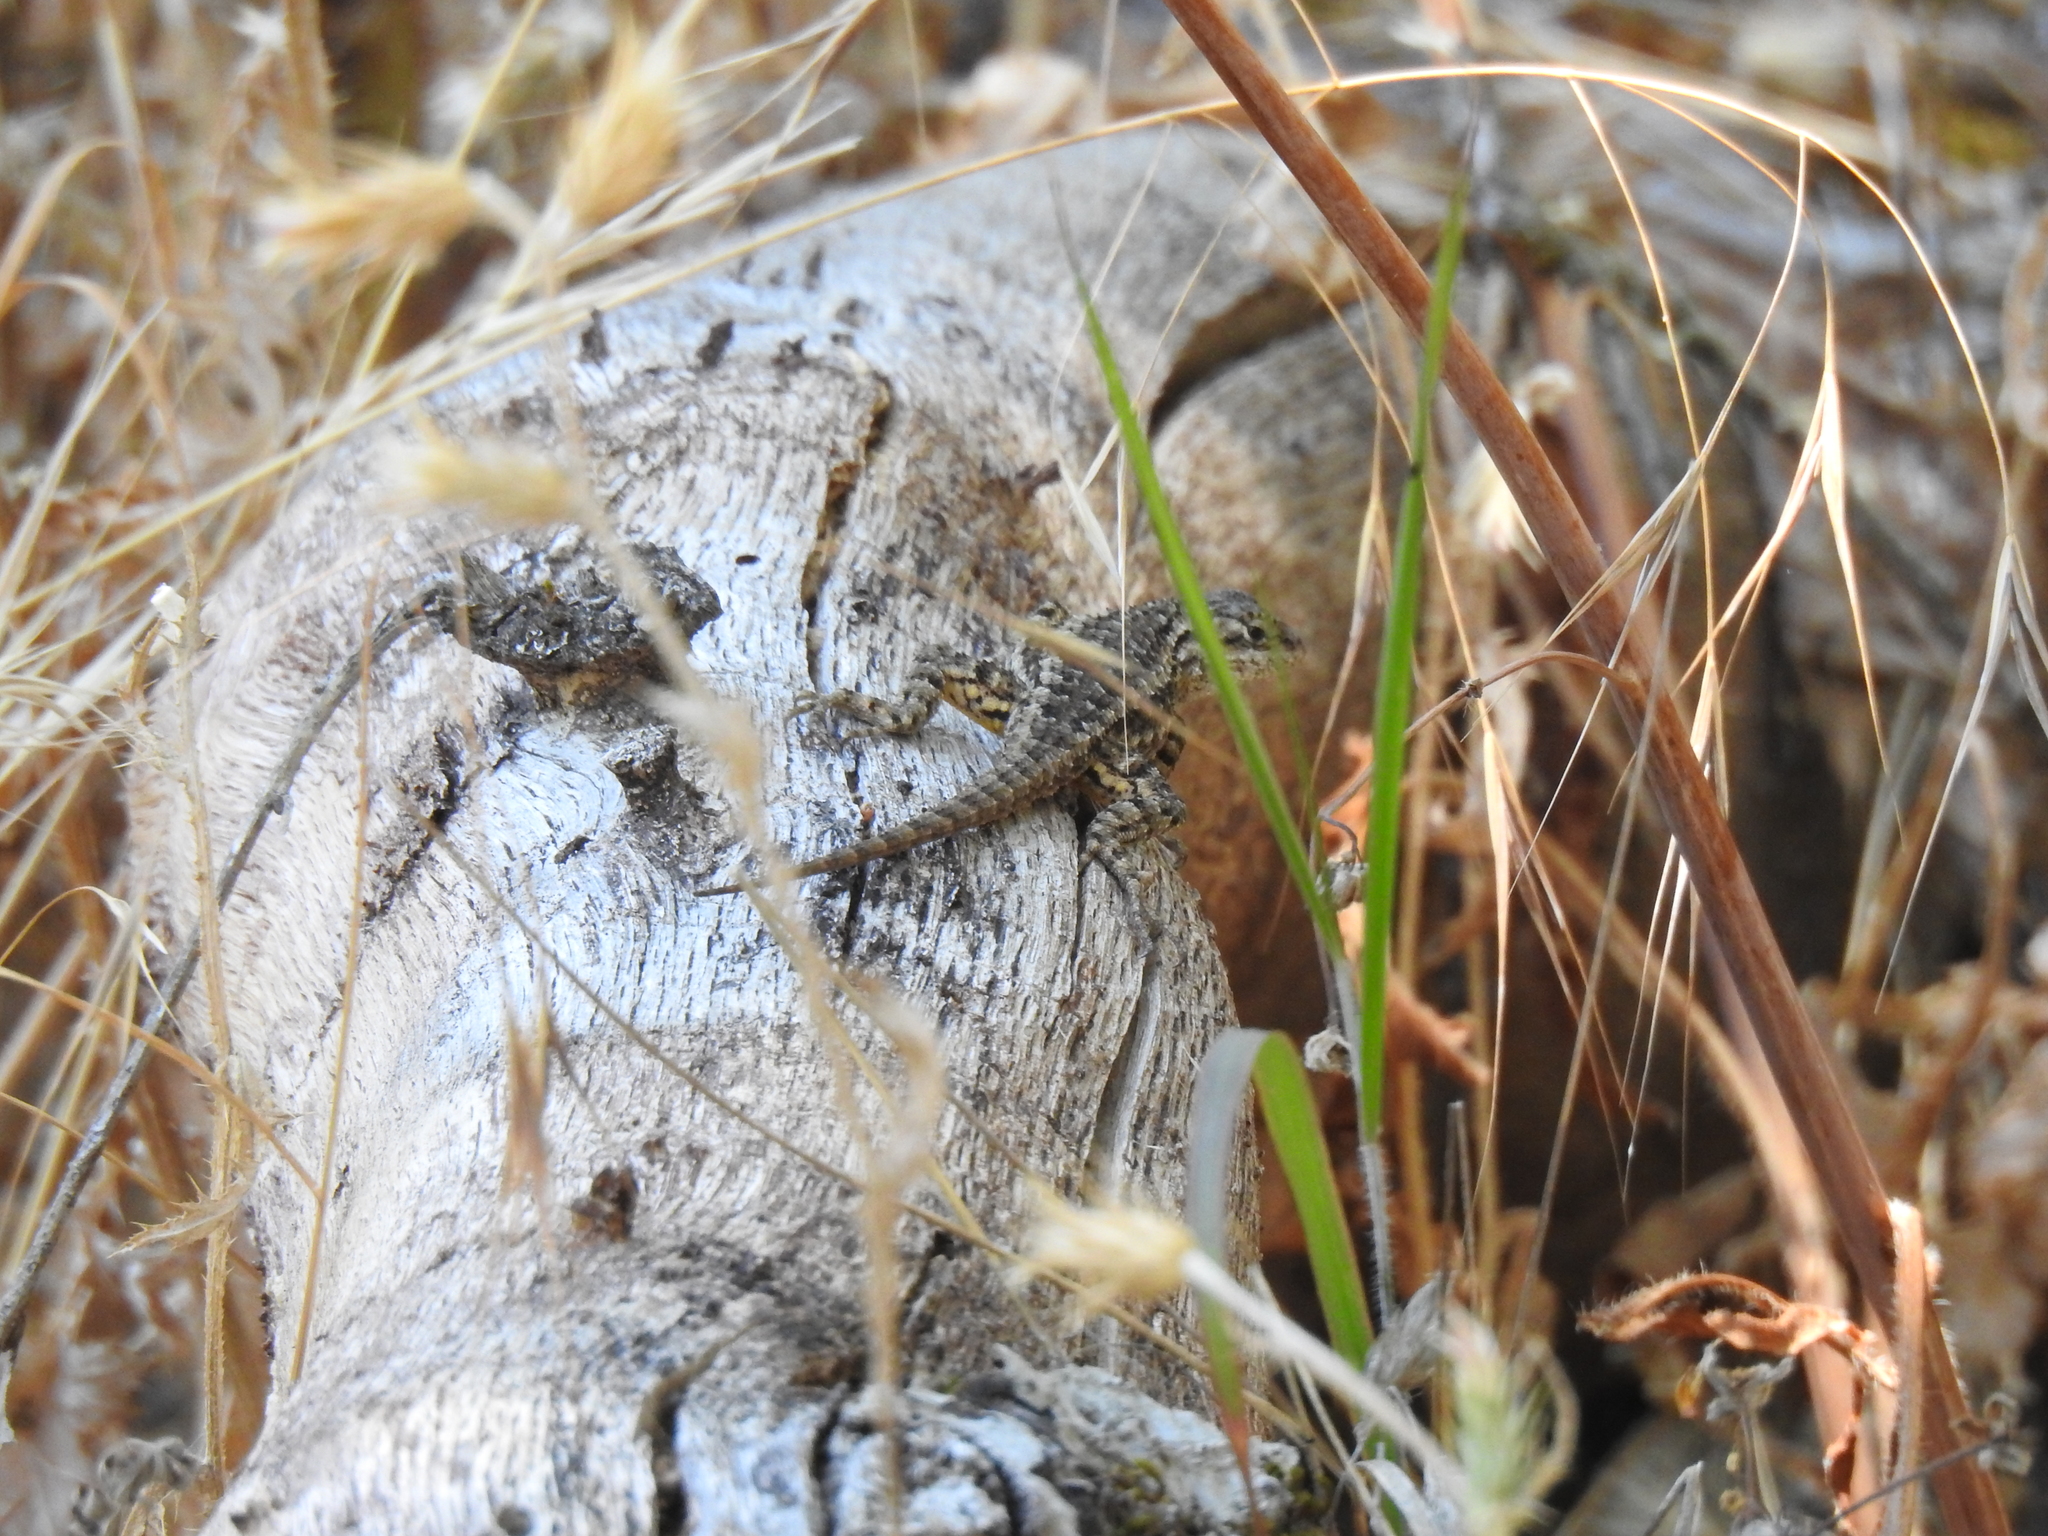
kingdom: Animalia
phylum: Chordata
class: Squamata
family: Phrynosomatidae
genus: Sceloporus
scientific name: Sceloporus occidentalis
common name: Western fence lizard
